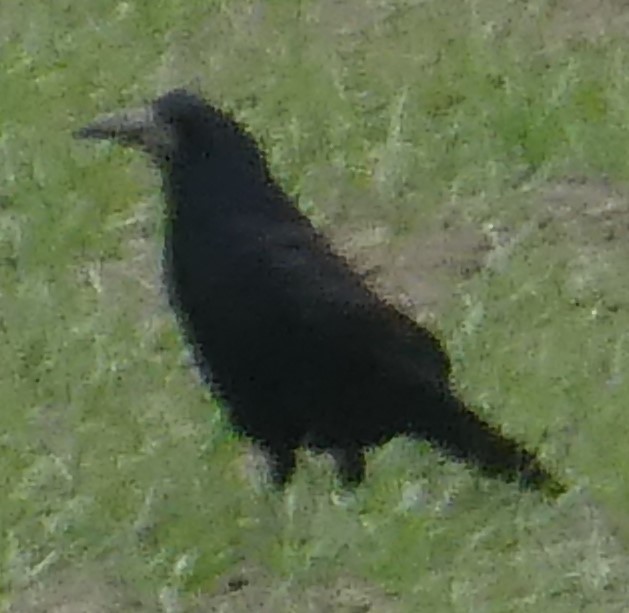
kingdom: Animalia
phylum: Chordata
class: Aves
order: Passeriformes
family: Corvidae
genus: Corvus
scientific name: Corvus frugilegus
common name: Rook
